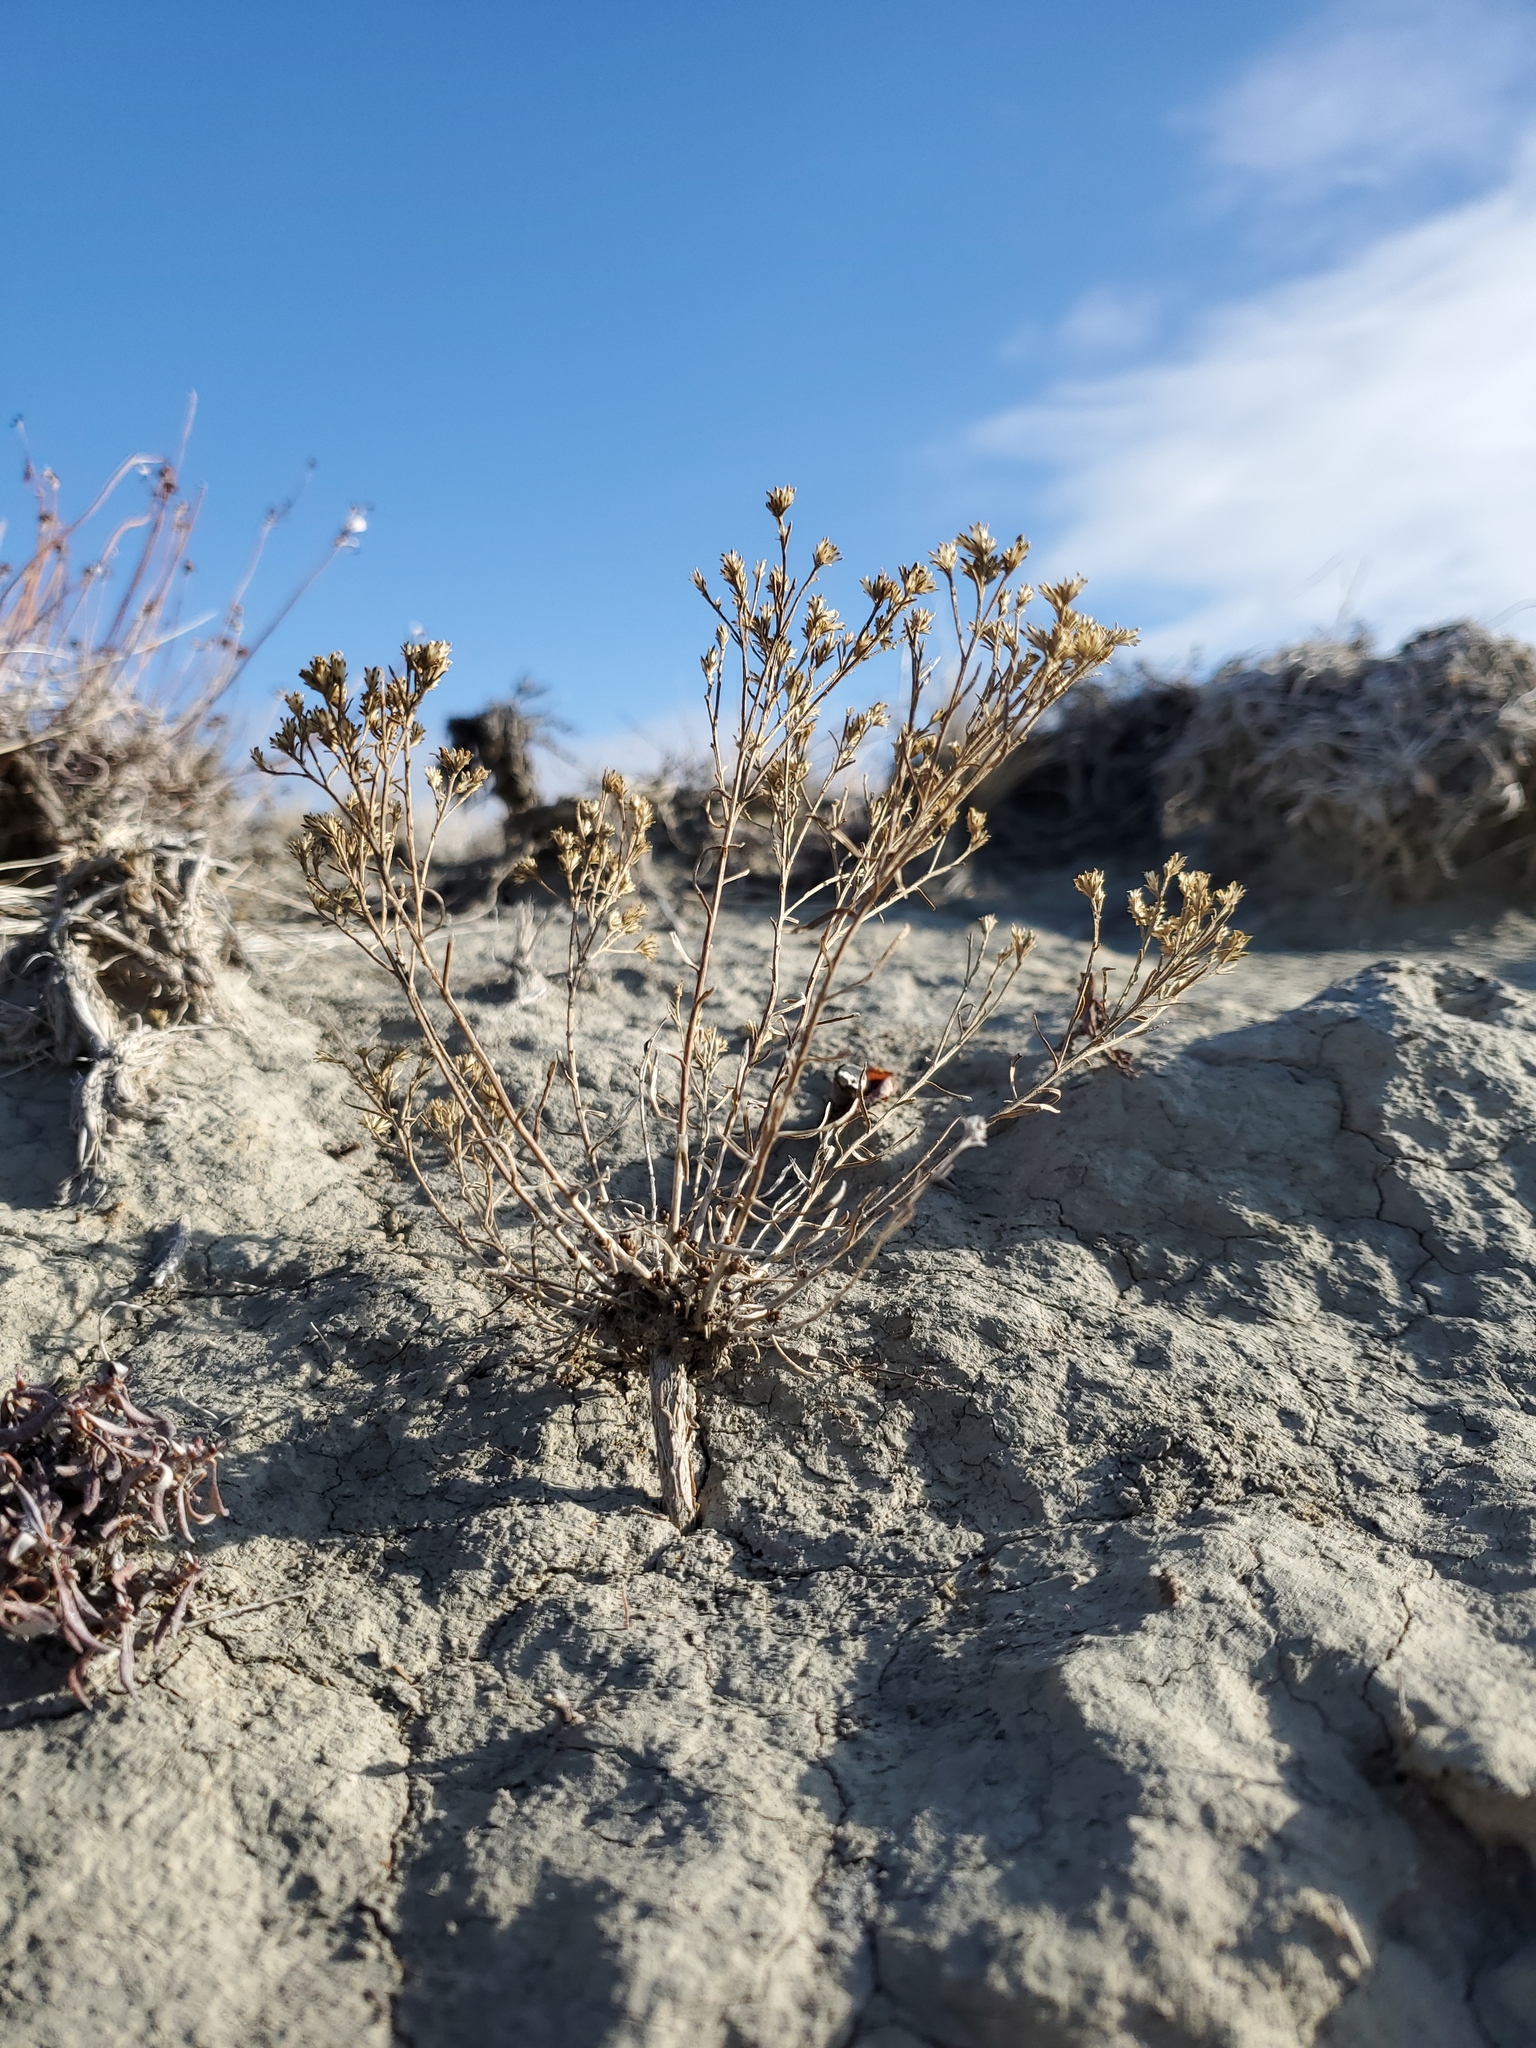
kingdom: Plantae
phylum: Tracheophyta
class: Magnoliopsida
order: Asterales
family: Asteraceae
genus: Gutierrezia
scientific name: Gutierrezia sarothrae
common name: Broom snakeweed
